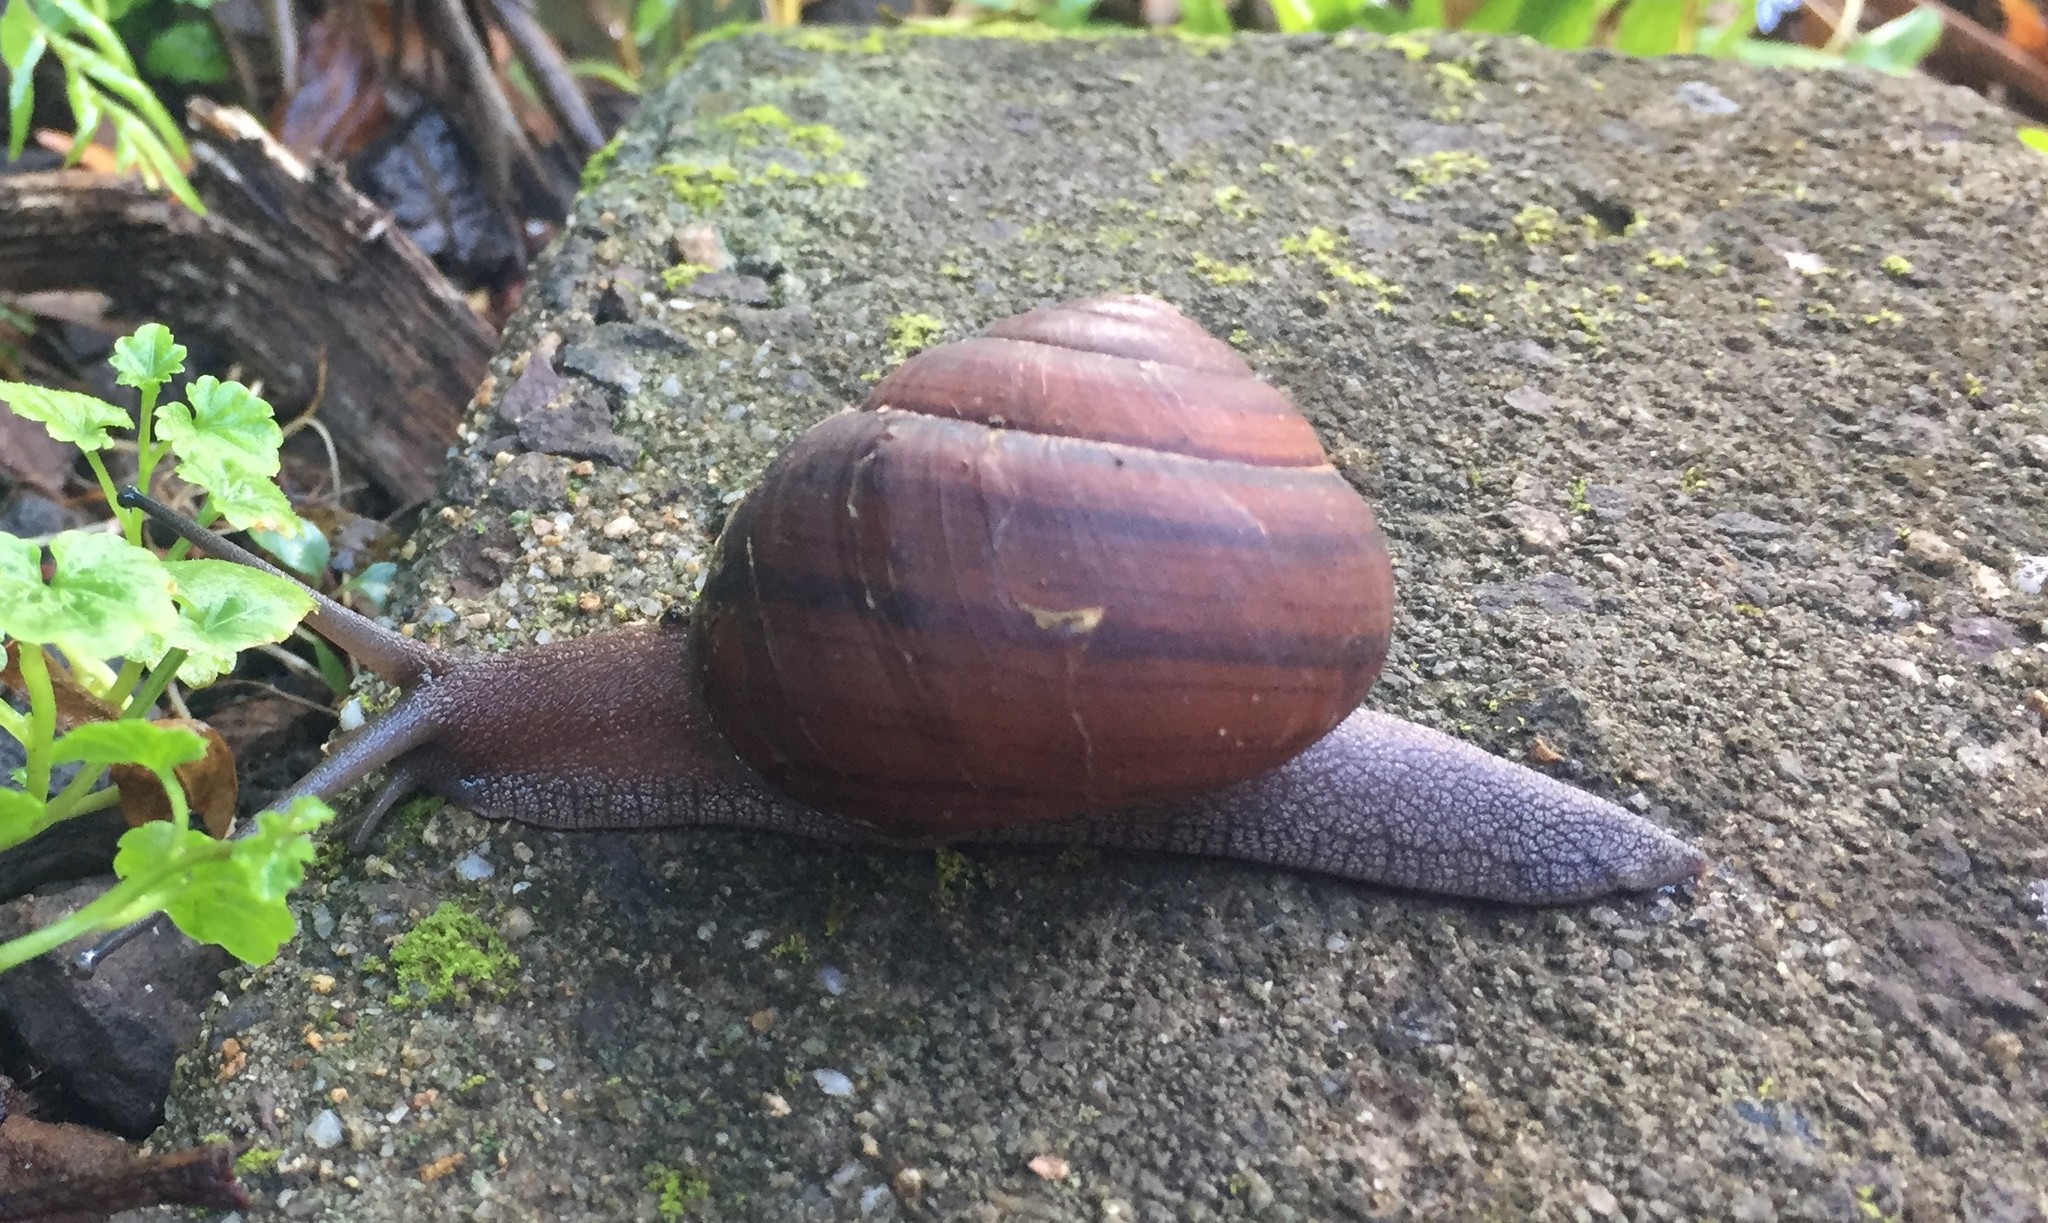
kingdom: Animalia
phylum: Mollusca
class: Gastropoda
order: Stylommatophora
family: Camaenidae
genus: Sphaerospira
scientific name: Sphaerospira fraseri
